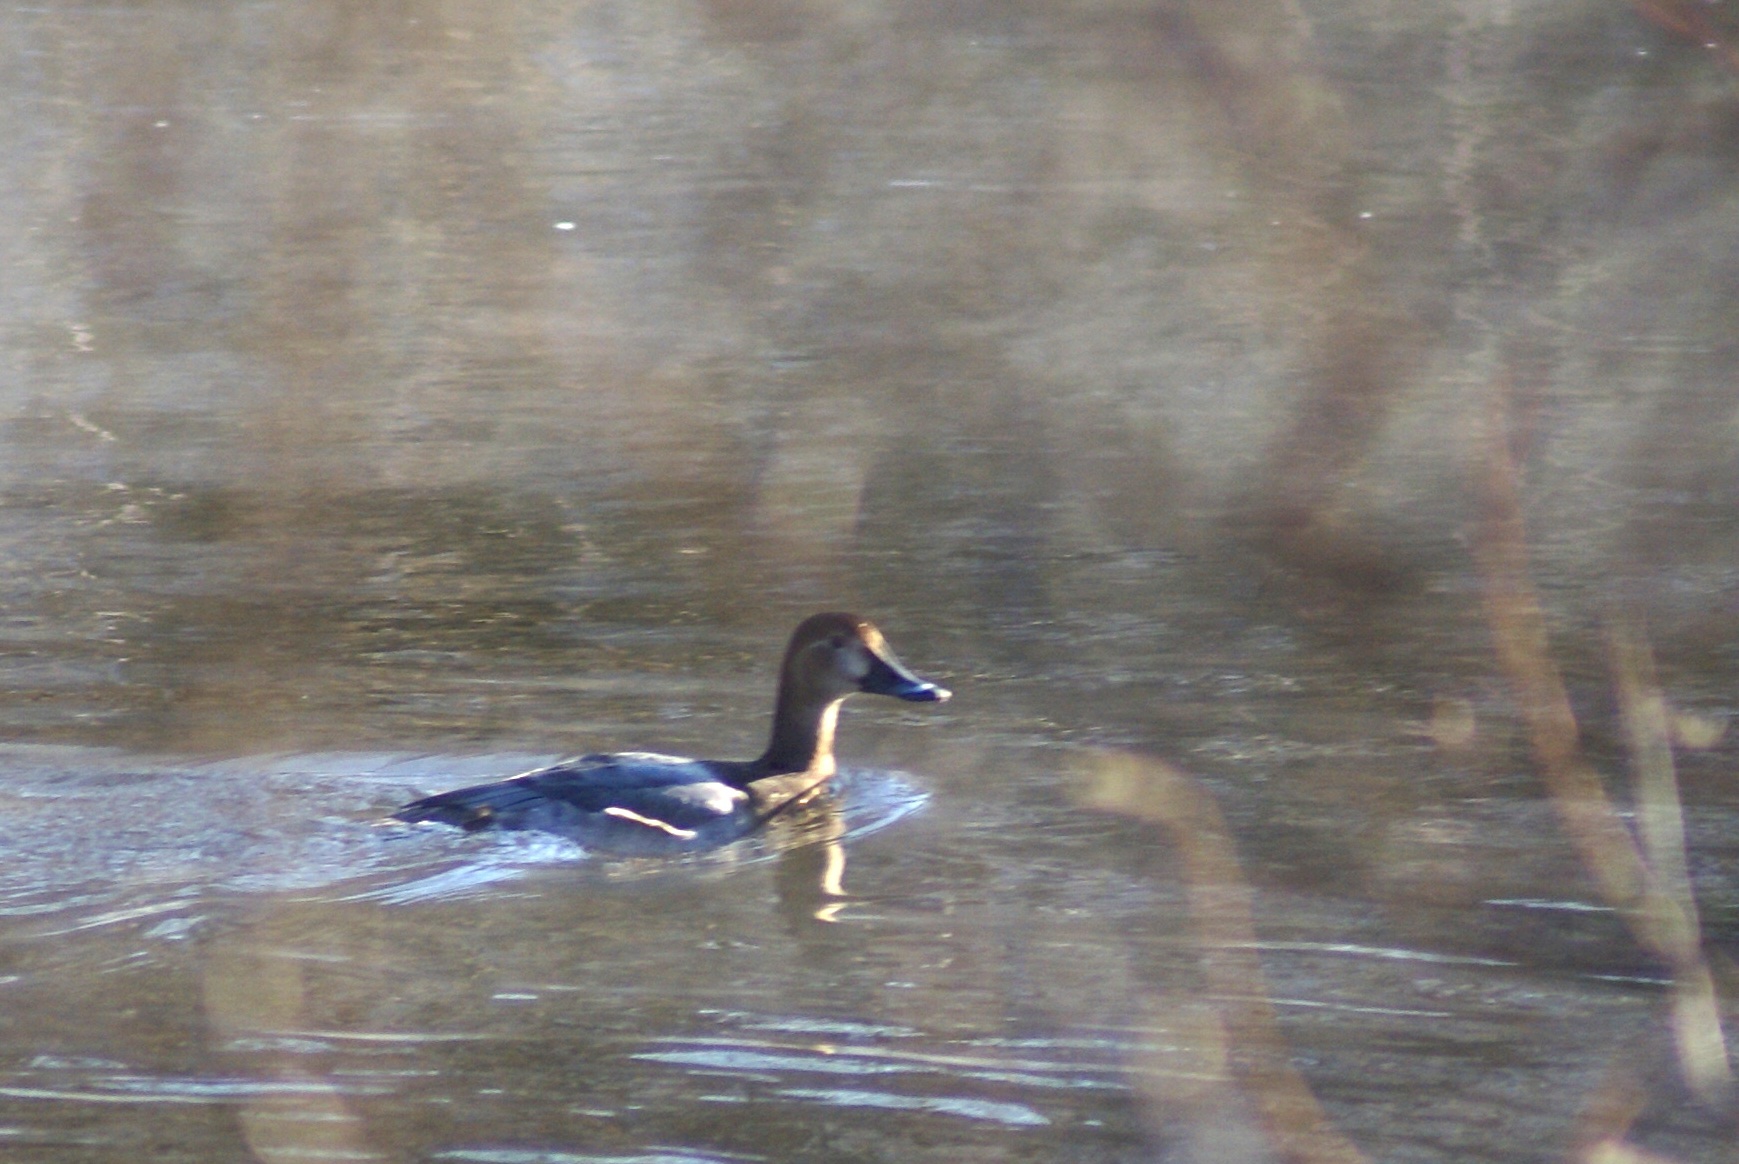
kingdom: Animalia
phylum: Chordata
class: Aves
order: Anseriformes
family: Anatidae
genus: Aythya
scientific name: Aythya ferina
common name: Common pochard
